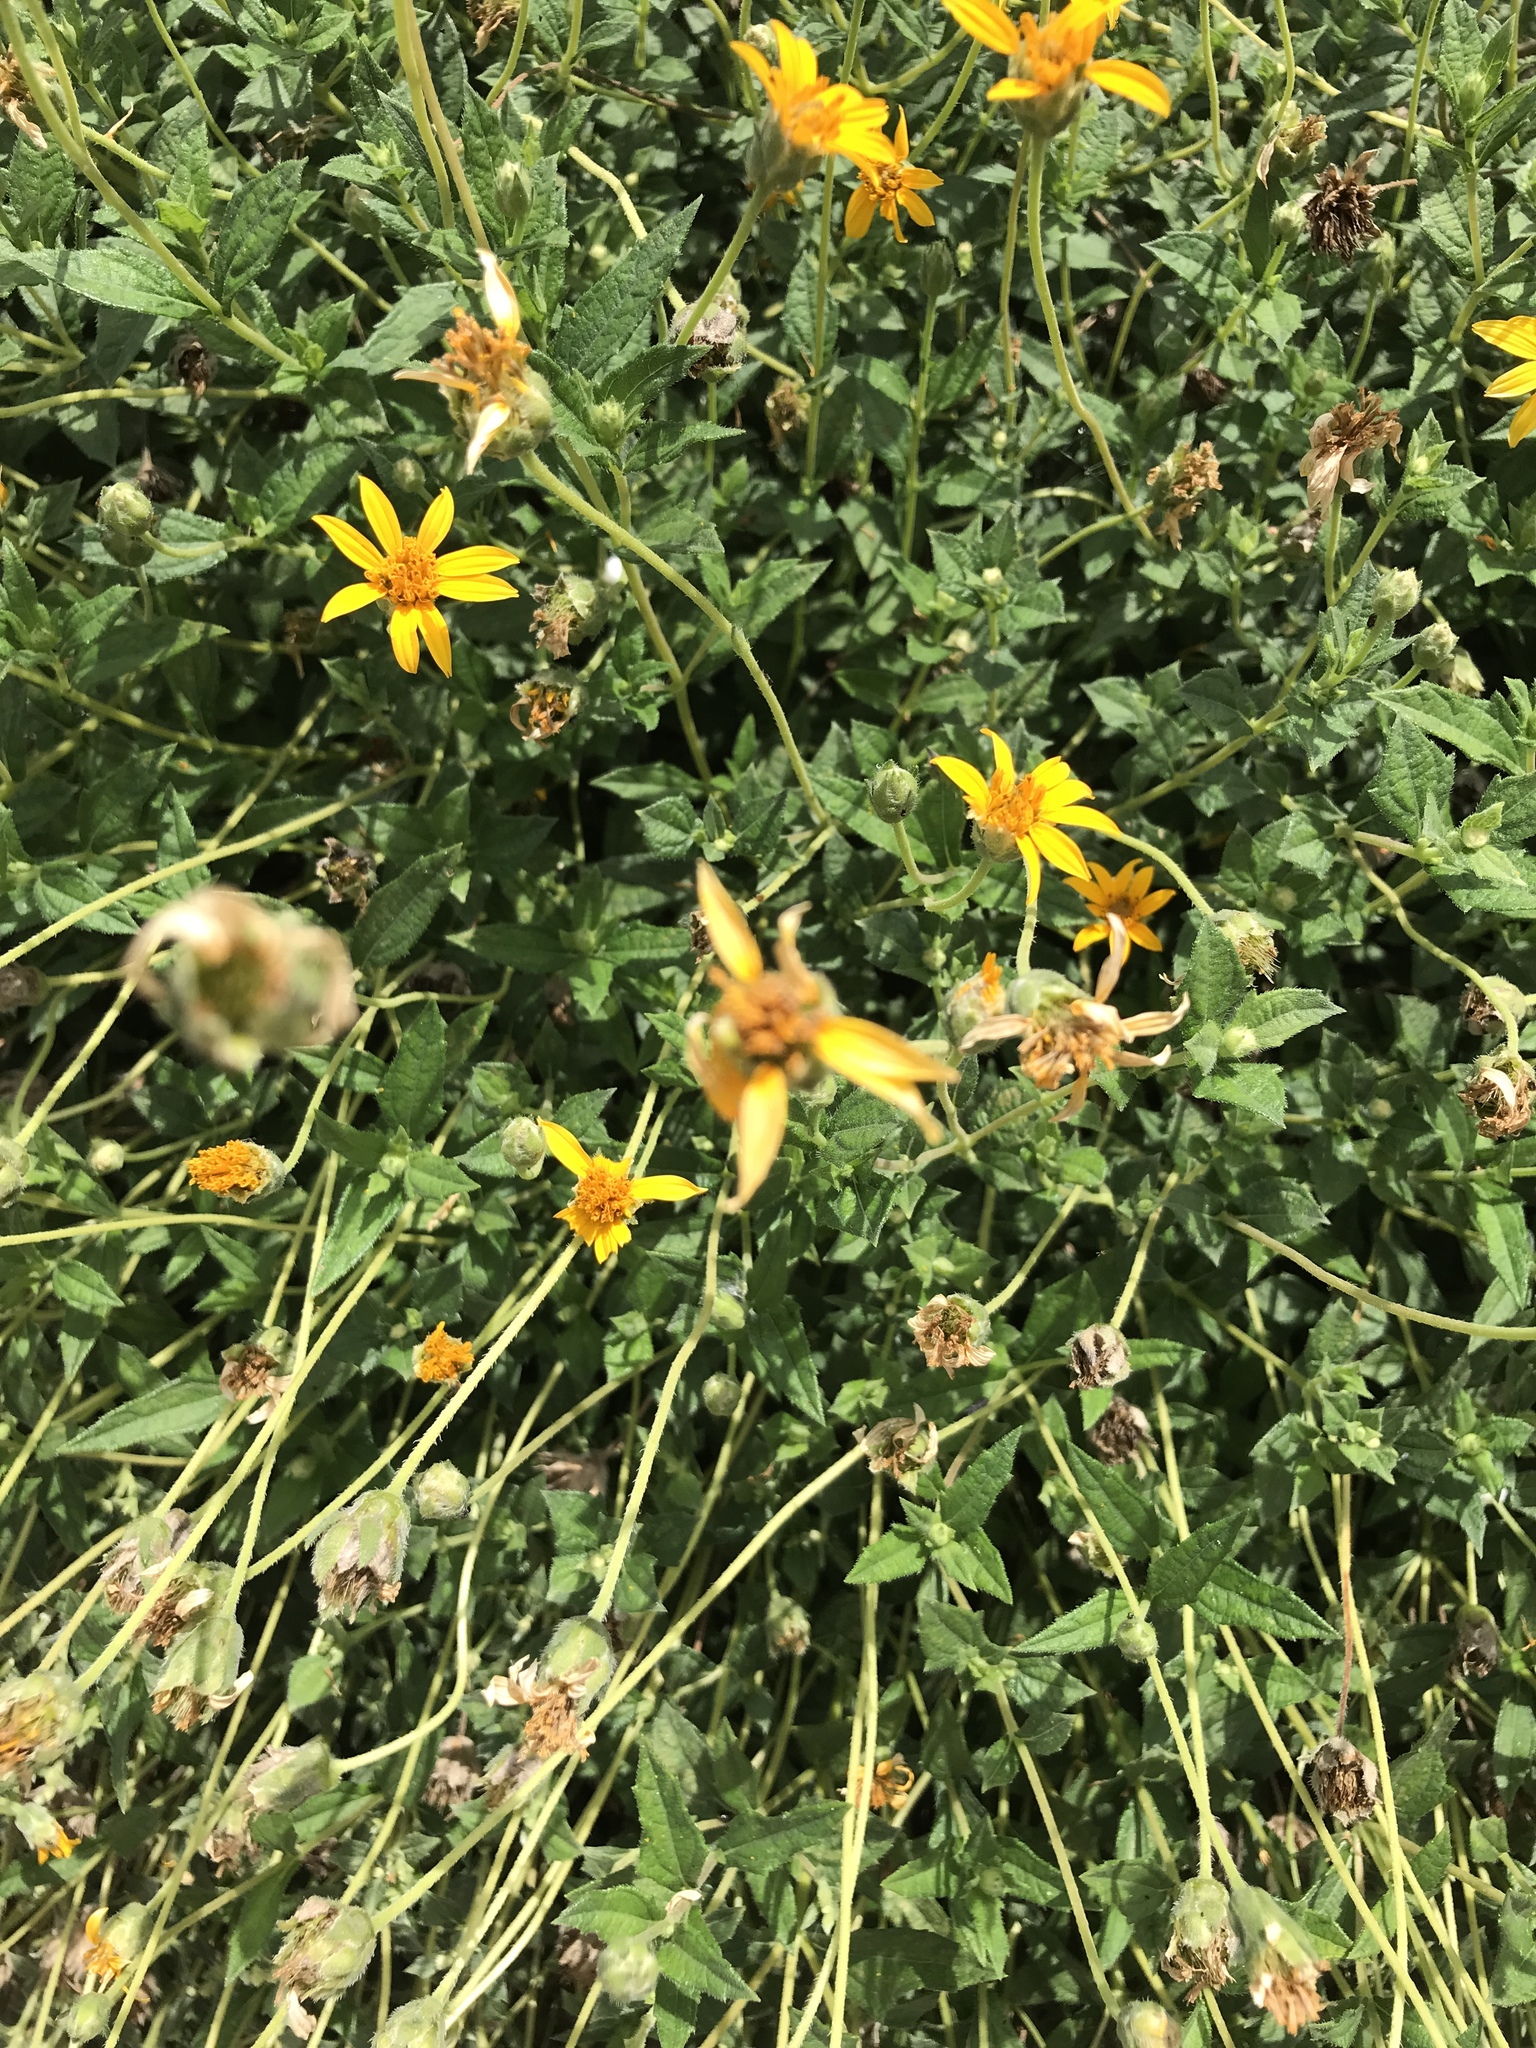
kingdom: Plantae
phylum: Tracheophyta
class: Magnoliopsida
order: Asterales
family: Asteraceae
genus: Wedelia
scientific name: Wedelia acapulcensis
